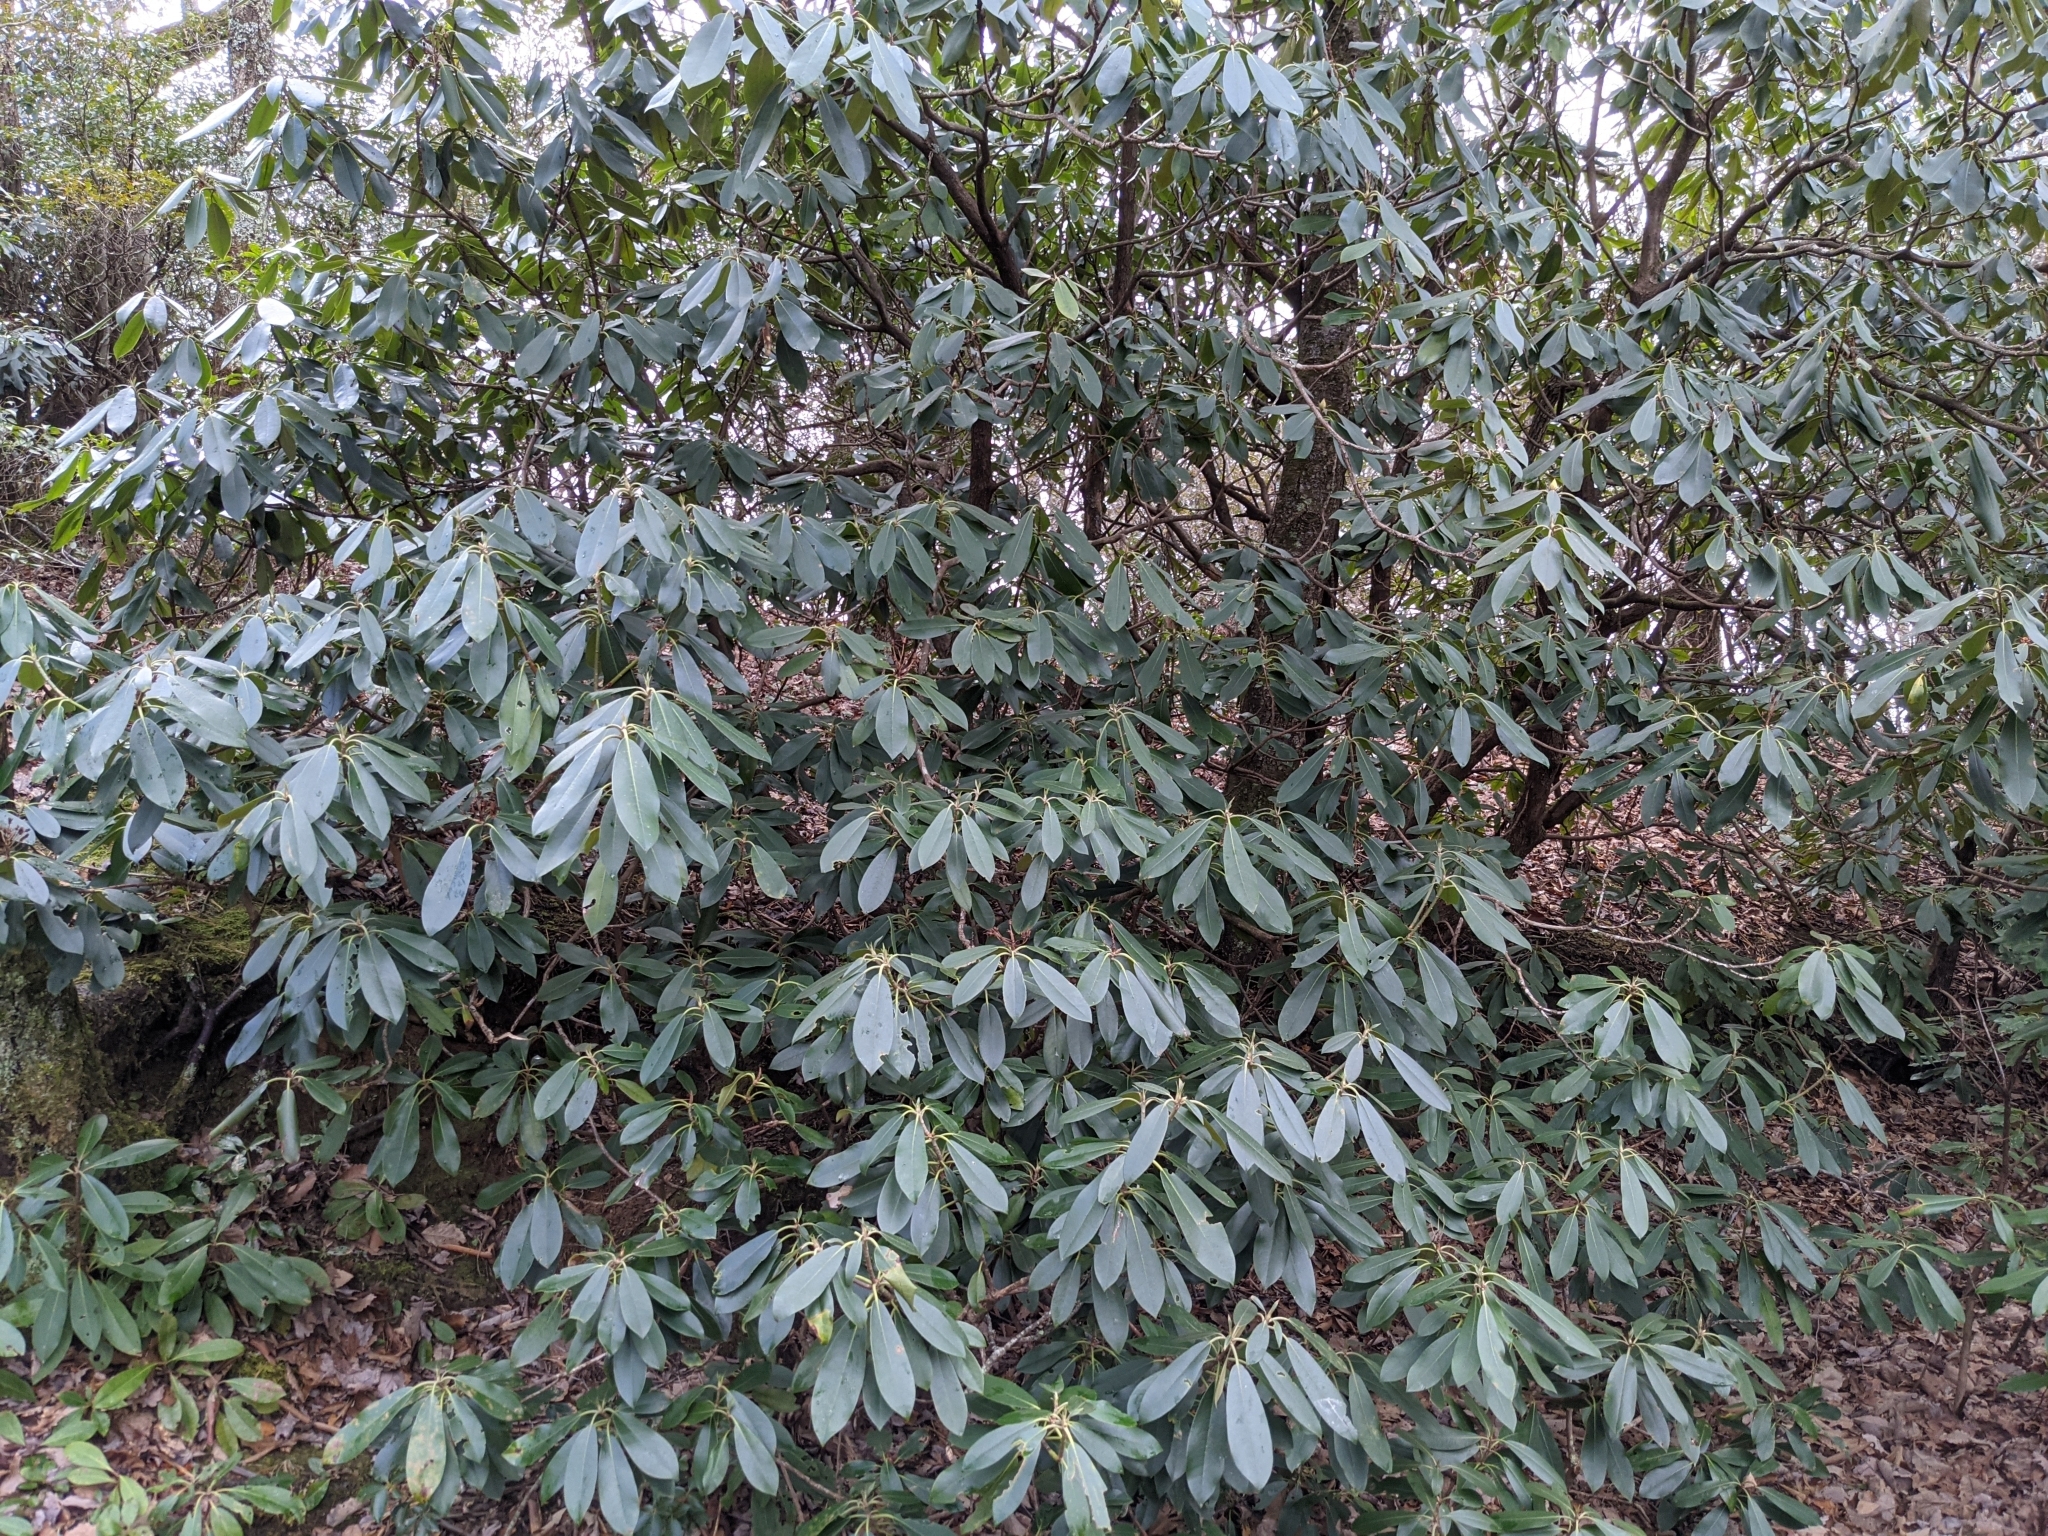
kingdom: Plantae
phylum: Tracheophyta
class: Magnoliopsida
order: Ericales
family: Ericaceae
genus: Rhododendron
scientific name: Rhododendron maximum
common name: Great rhododendron
